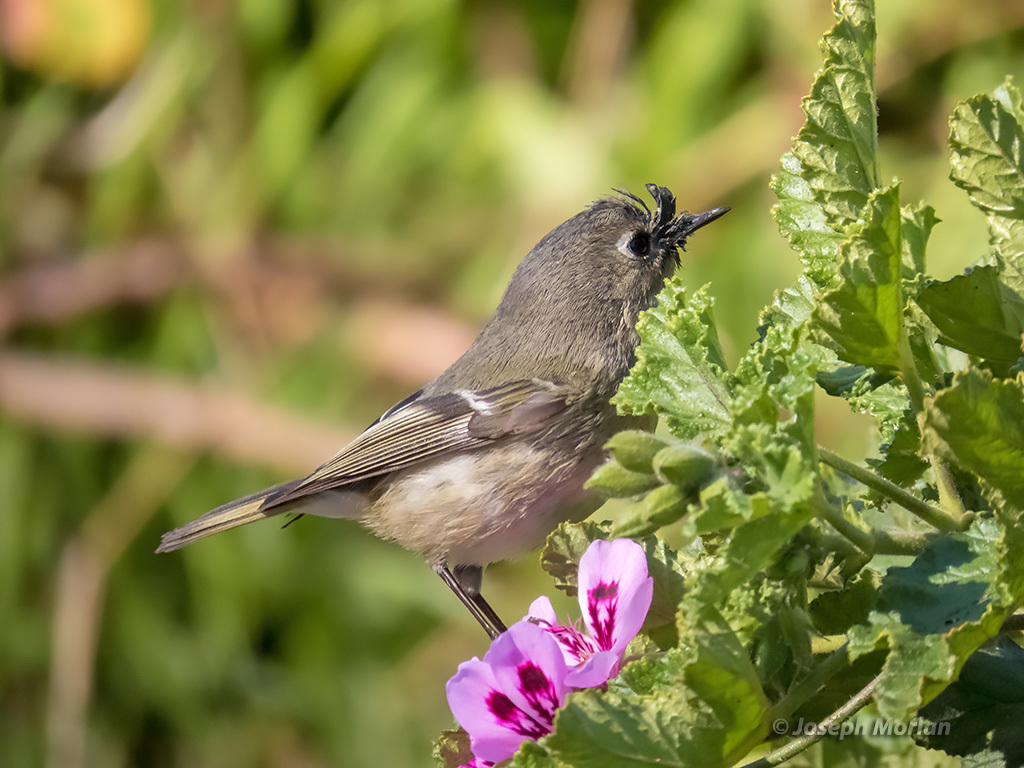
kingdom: Animalia
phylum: Chordata
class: Aves
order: Passeriformes
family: Regulidae
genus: Regulus
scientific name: Regulus calendula
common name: Ruby-crowned kinglet
